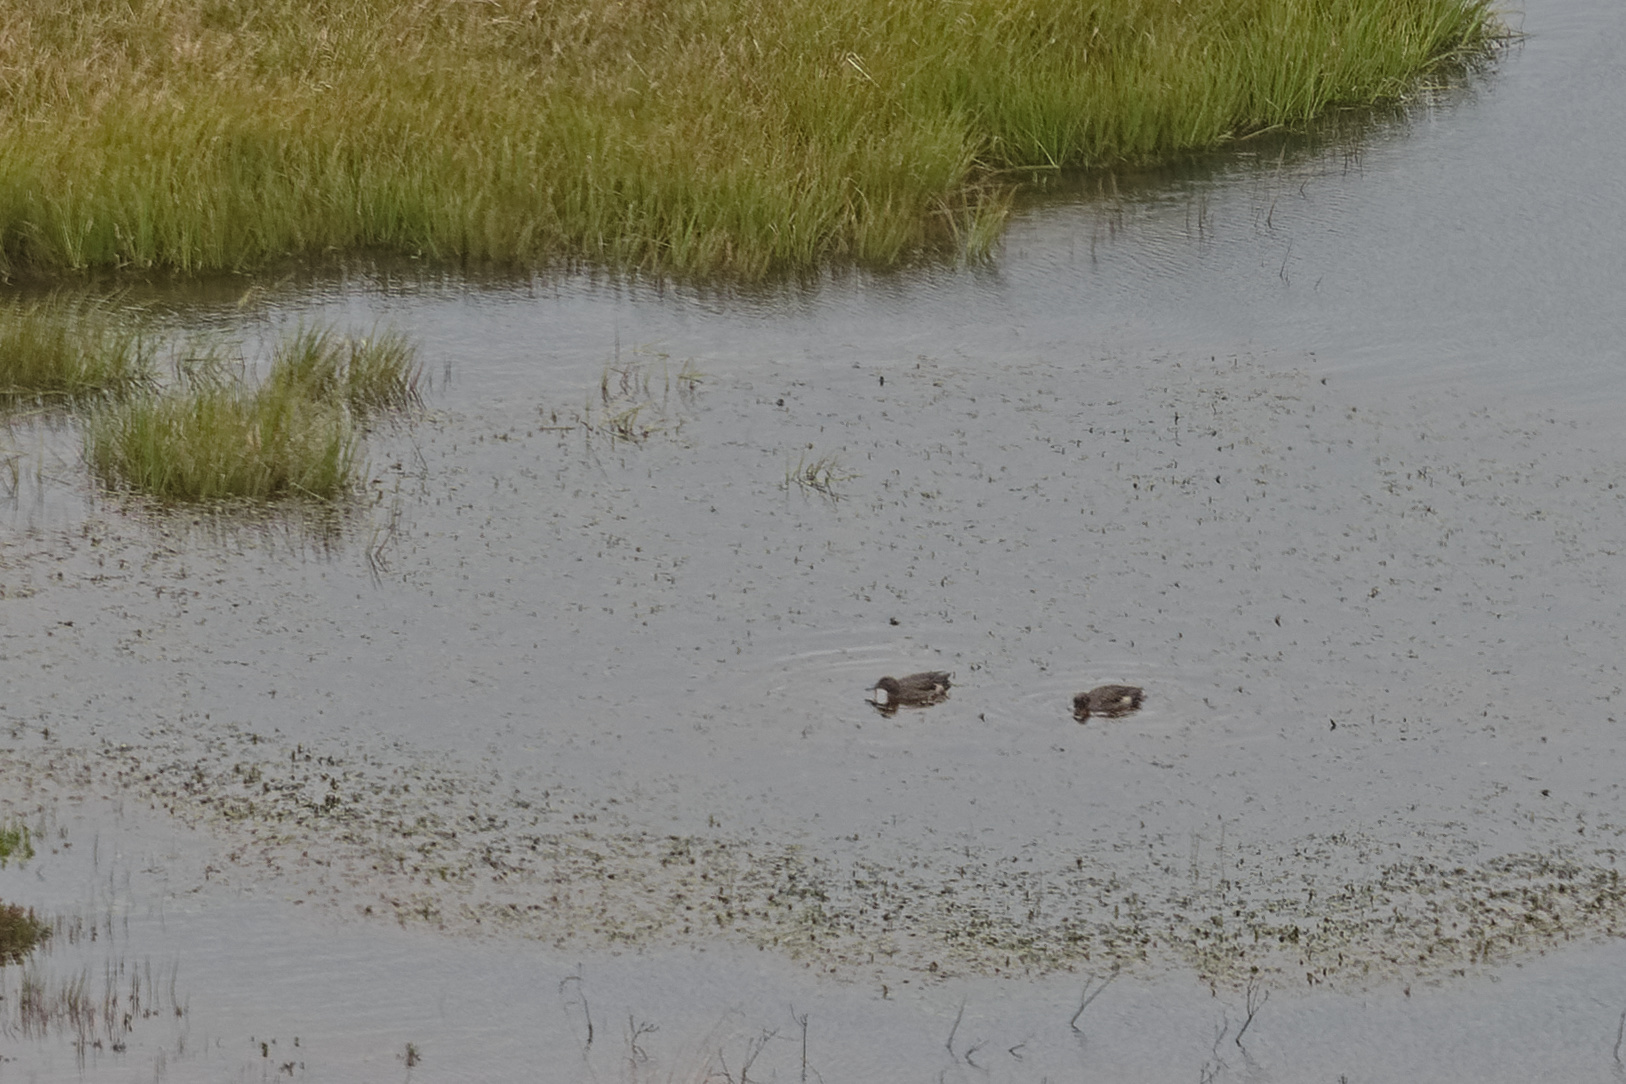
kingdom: Animalia
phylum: Chordata
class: Aves
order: Anseriformes
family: Anatidae
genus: Anas
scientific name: Anas andium
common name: Andean teal
